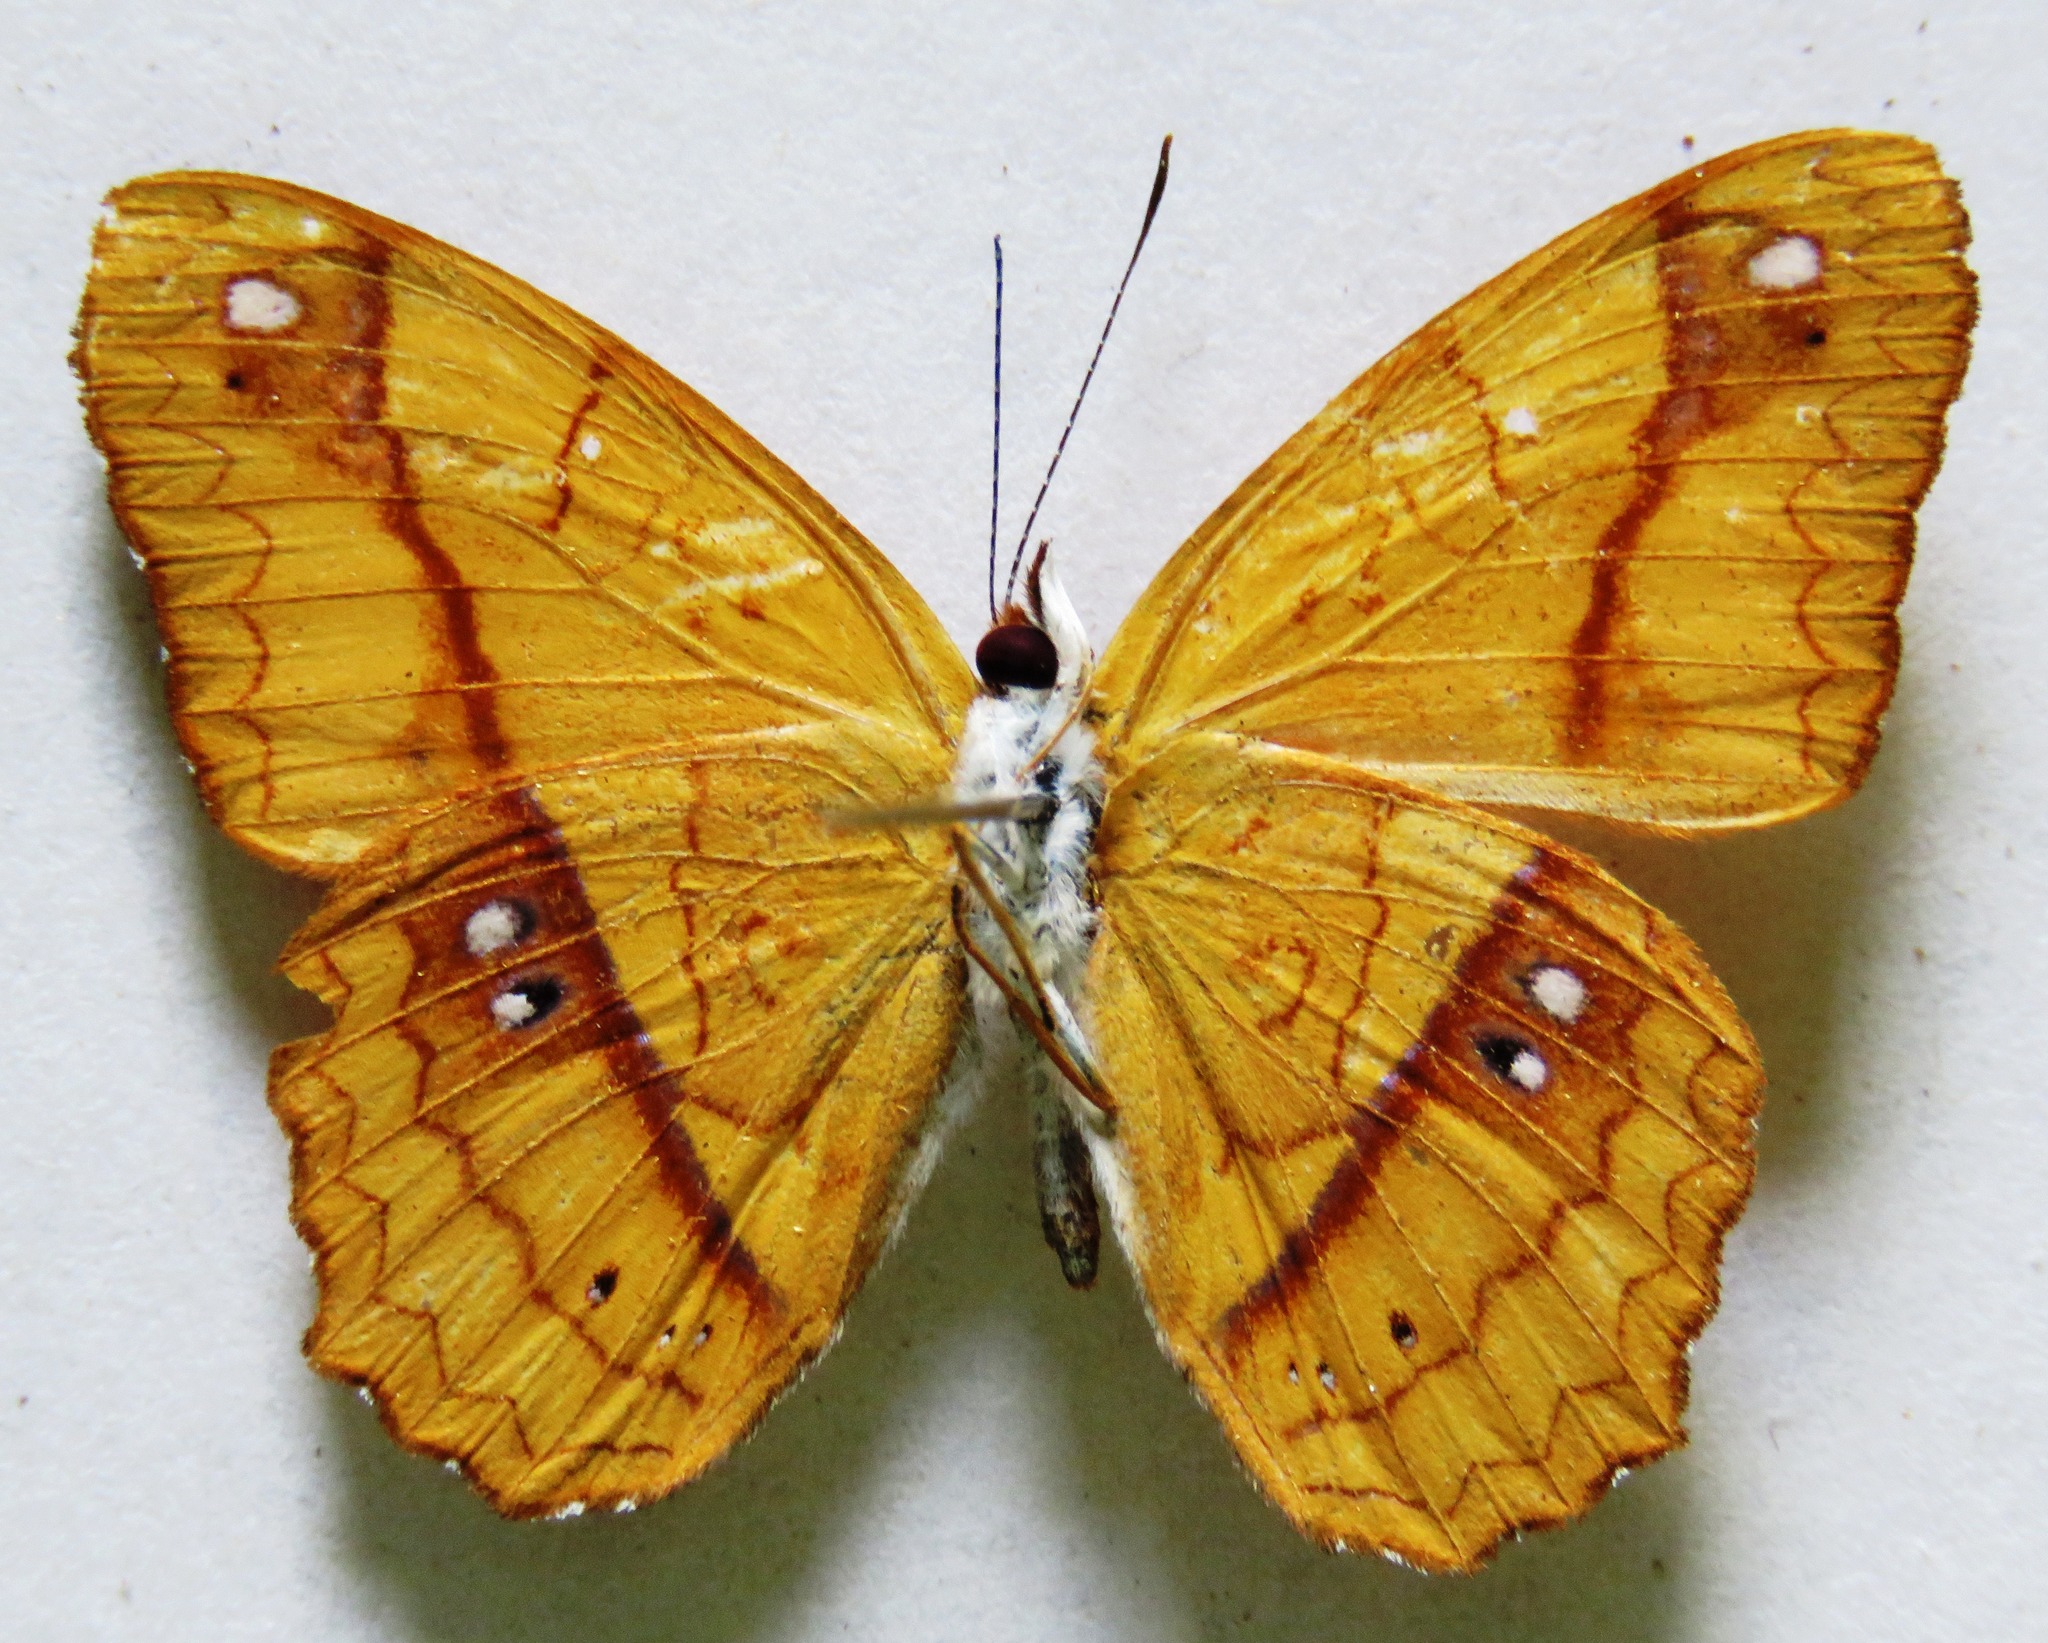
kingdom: Animalia
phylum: Arthropoda
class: Insecta
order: Lepidoptera
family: Nymphalidae
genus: Nica
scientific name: Nica flavilla
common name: Mandarin nica
